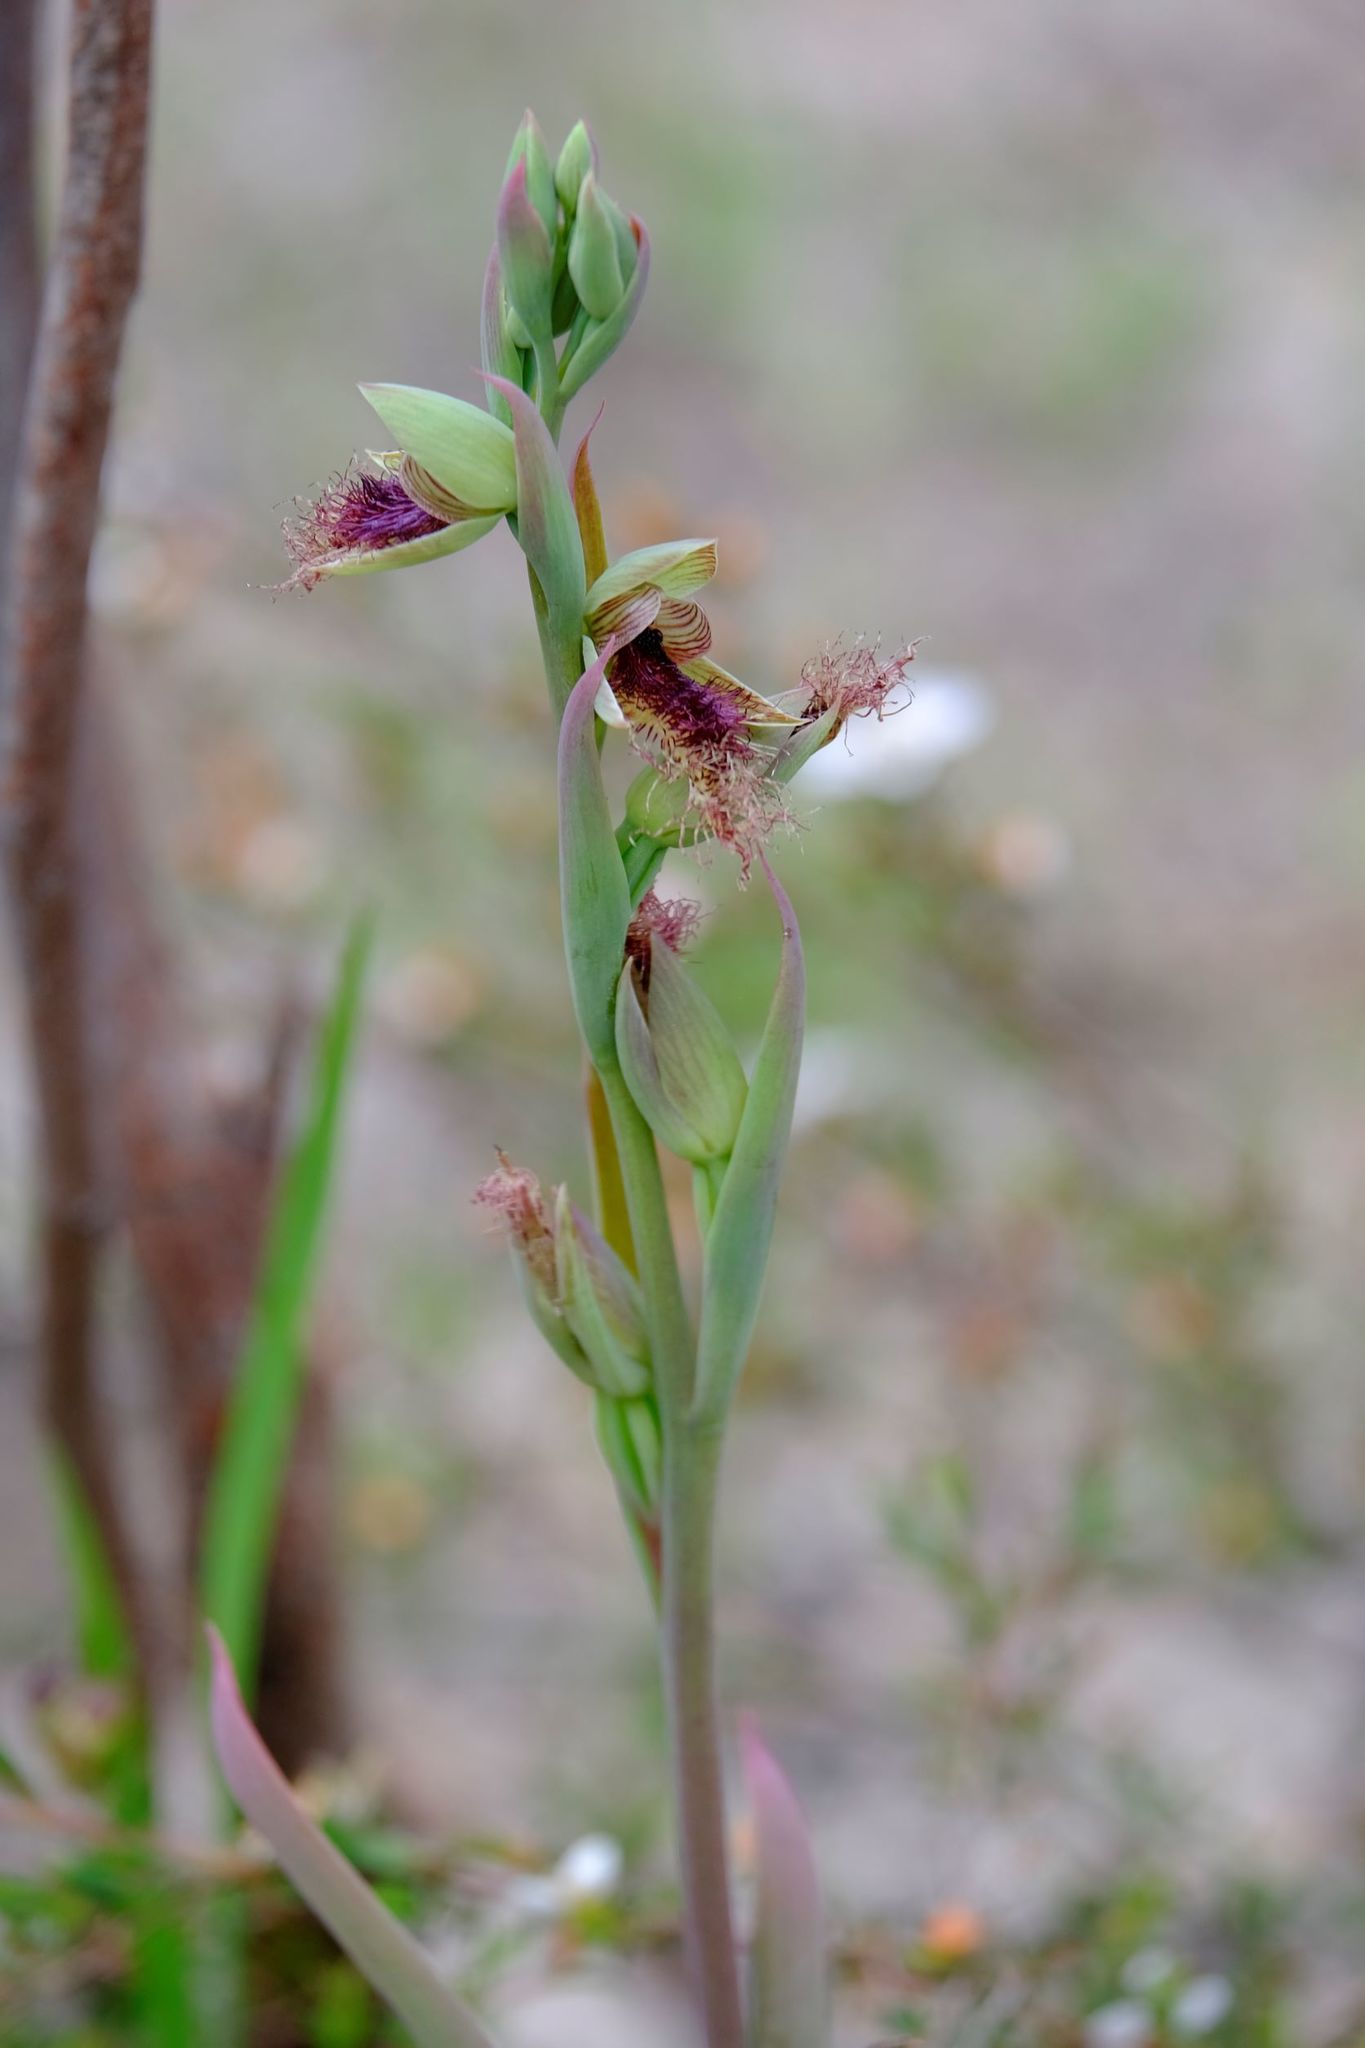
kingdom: Plantae
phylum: Tracheophyta
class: Liliopsida
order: Asparagales
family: Orchidaceae
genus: Calochilus
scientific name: Calochilus robertsonii
